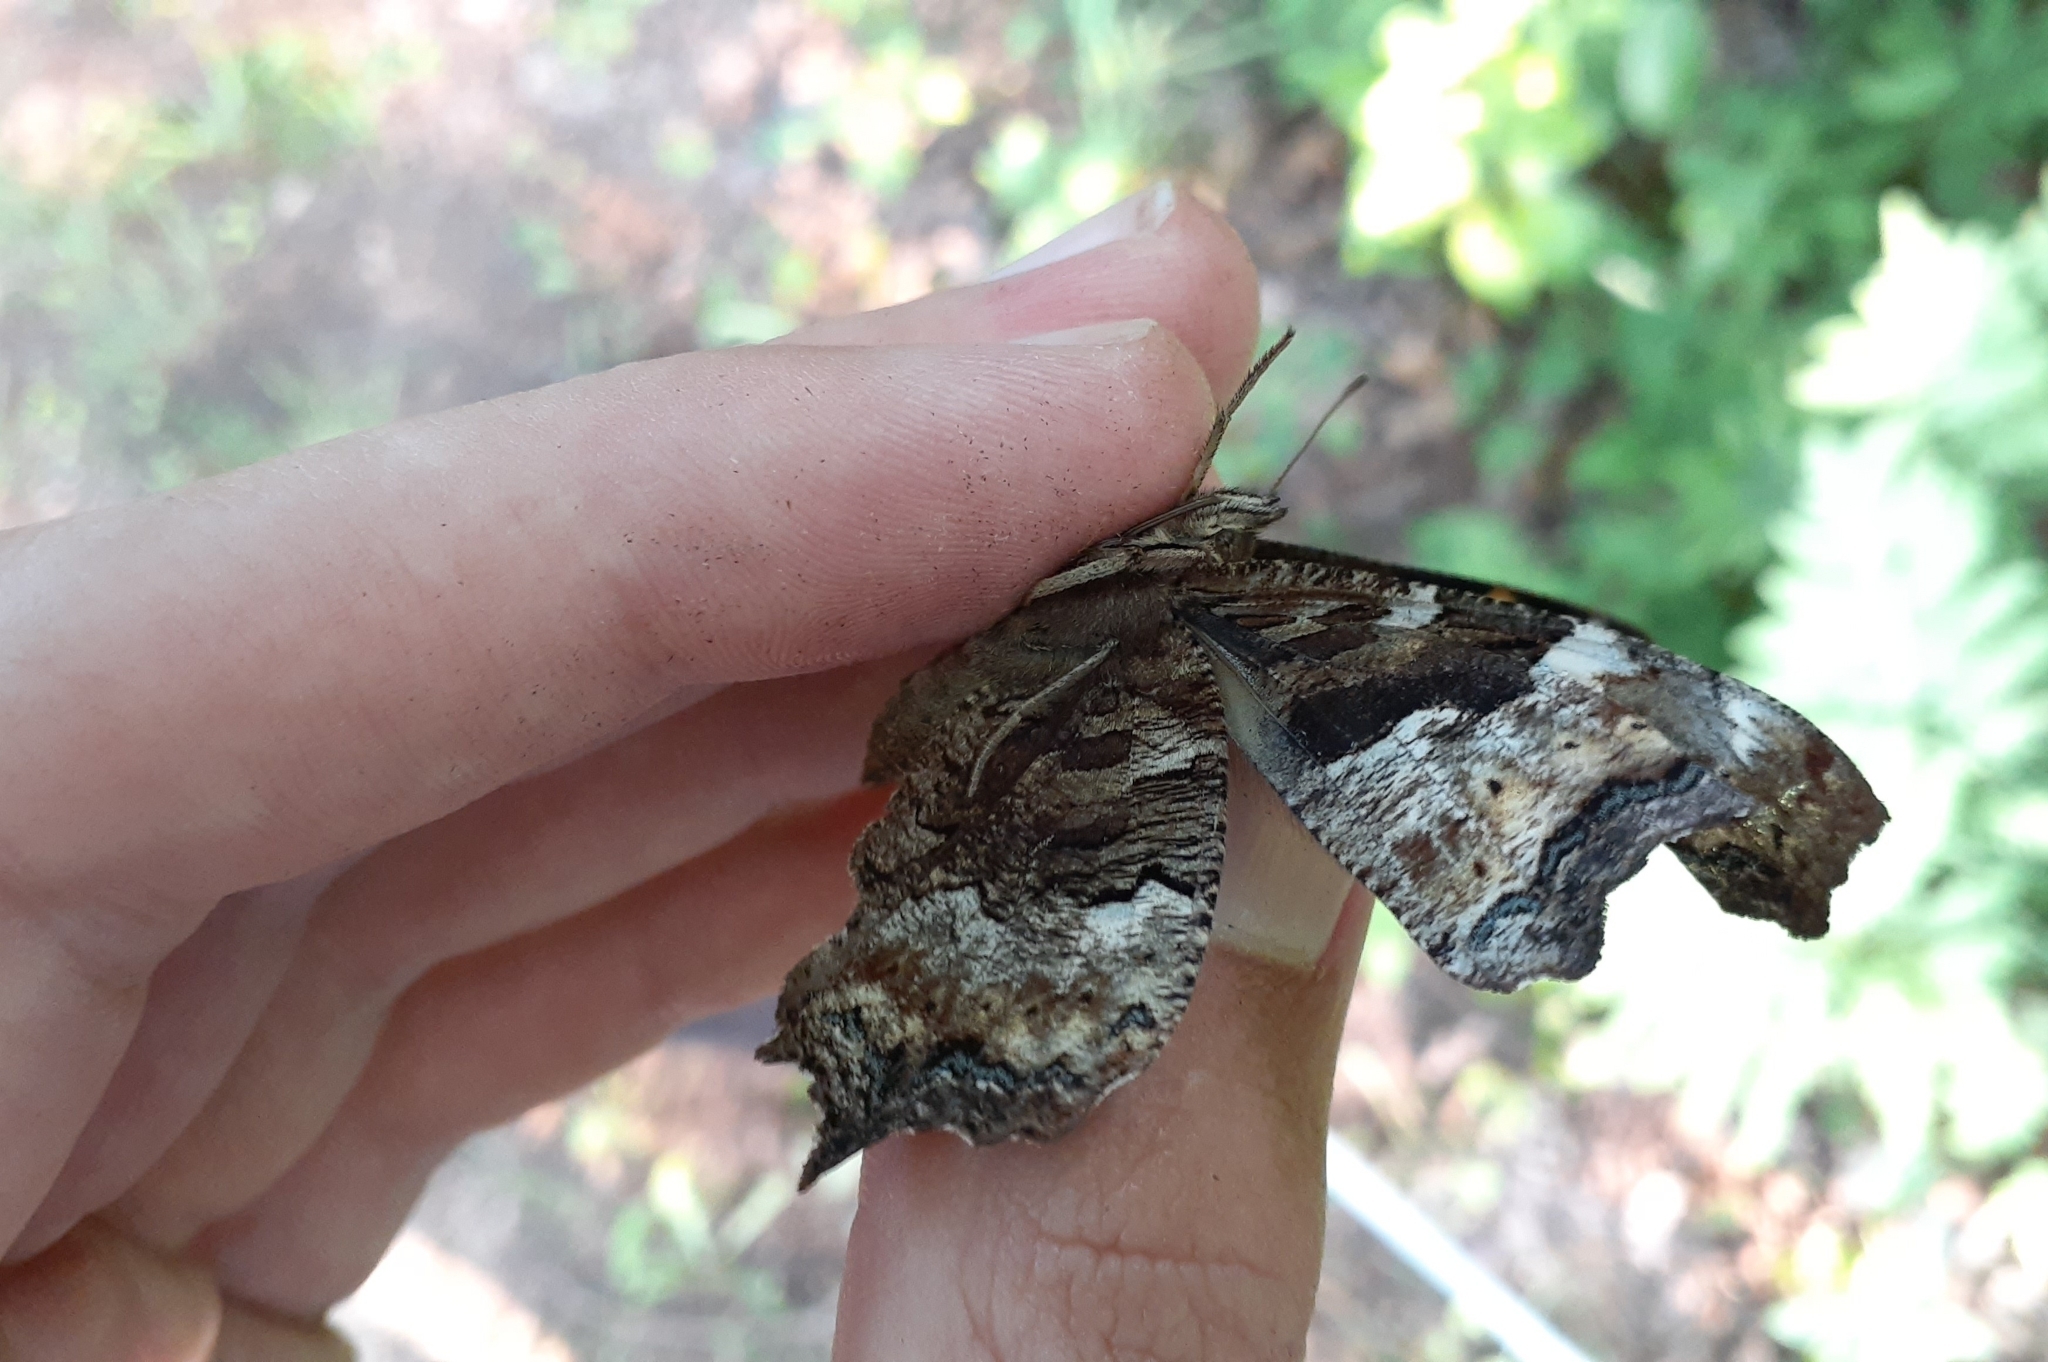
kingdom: Animalia
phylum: Arthropoda
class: Insecta
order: Lepidoptera
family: Nymphalidae
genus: Polygonia
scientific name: Polygonia vaualbum
